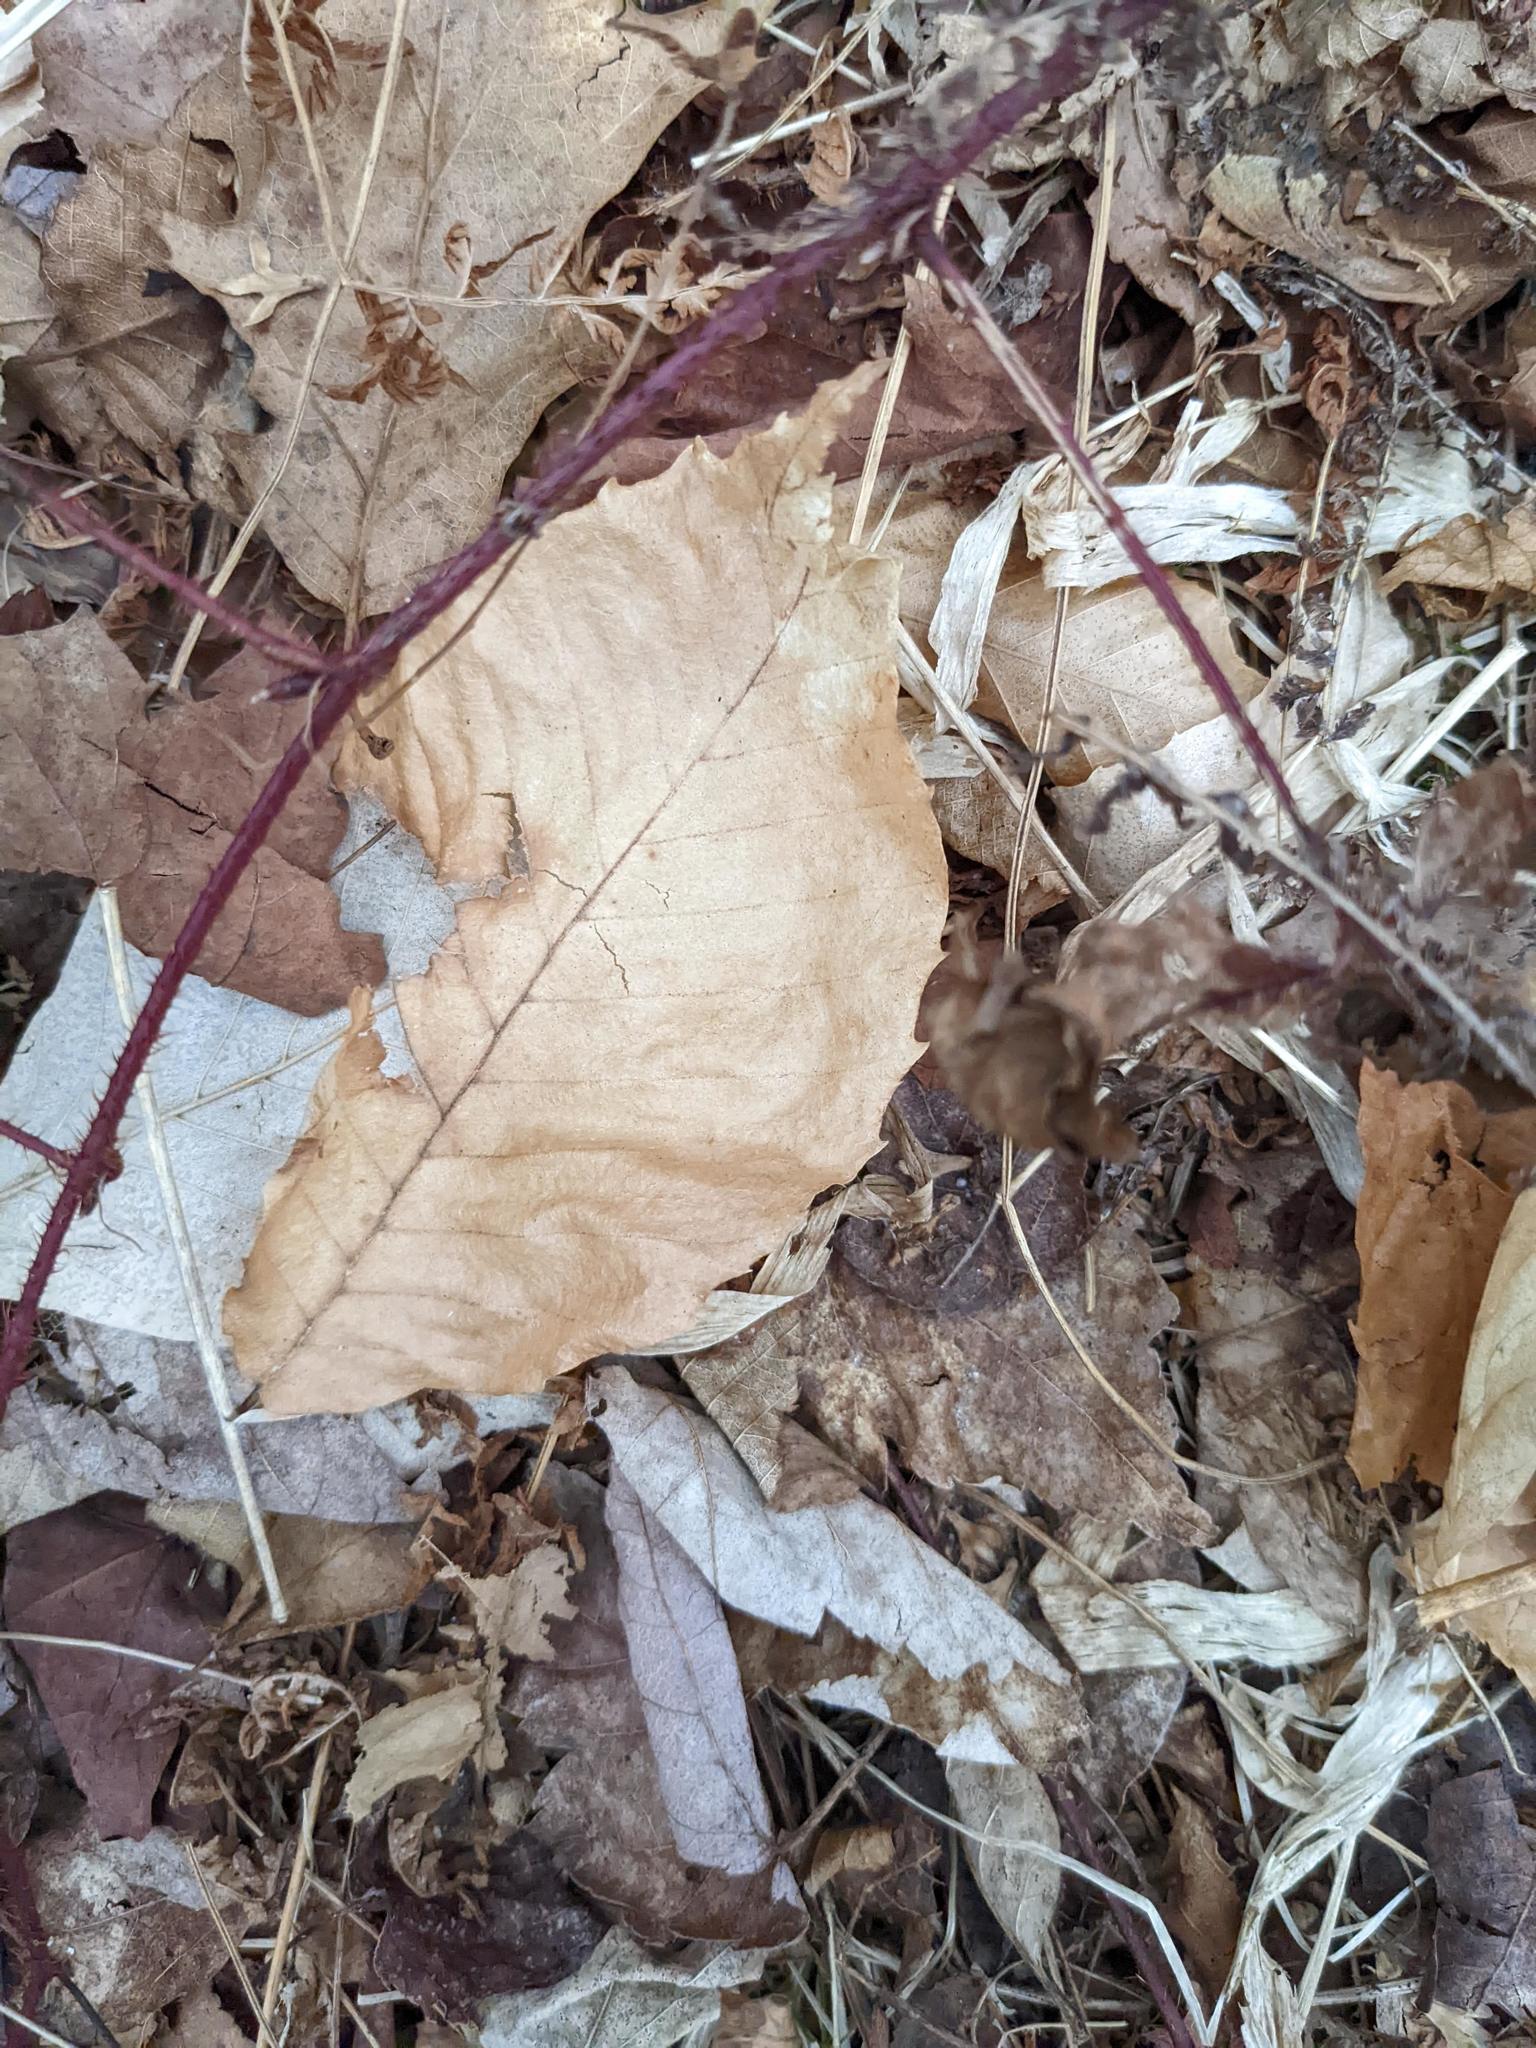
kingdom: Plantae
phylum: Tracheophyta
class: Magnoliopsida
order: Fagales
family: Fagaceae
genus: Fagus
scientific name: Fagus grandifolia
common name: American beech
